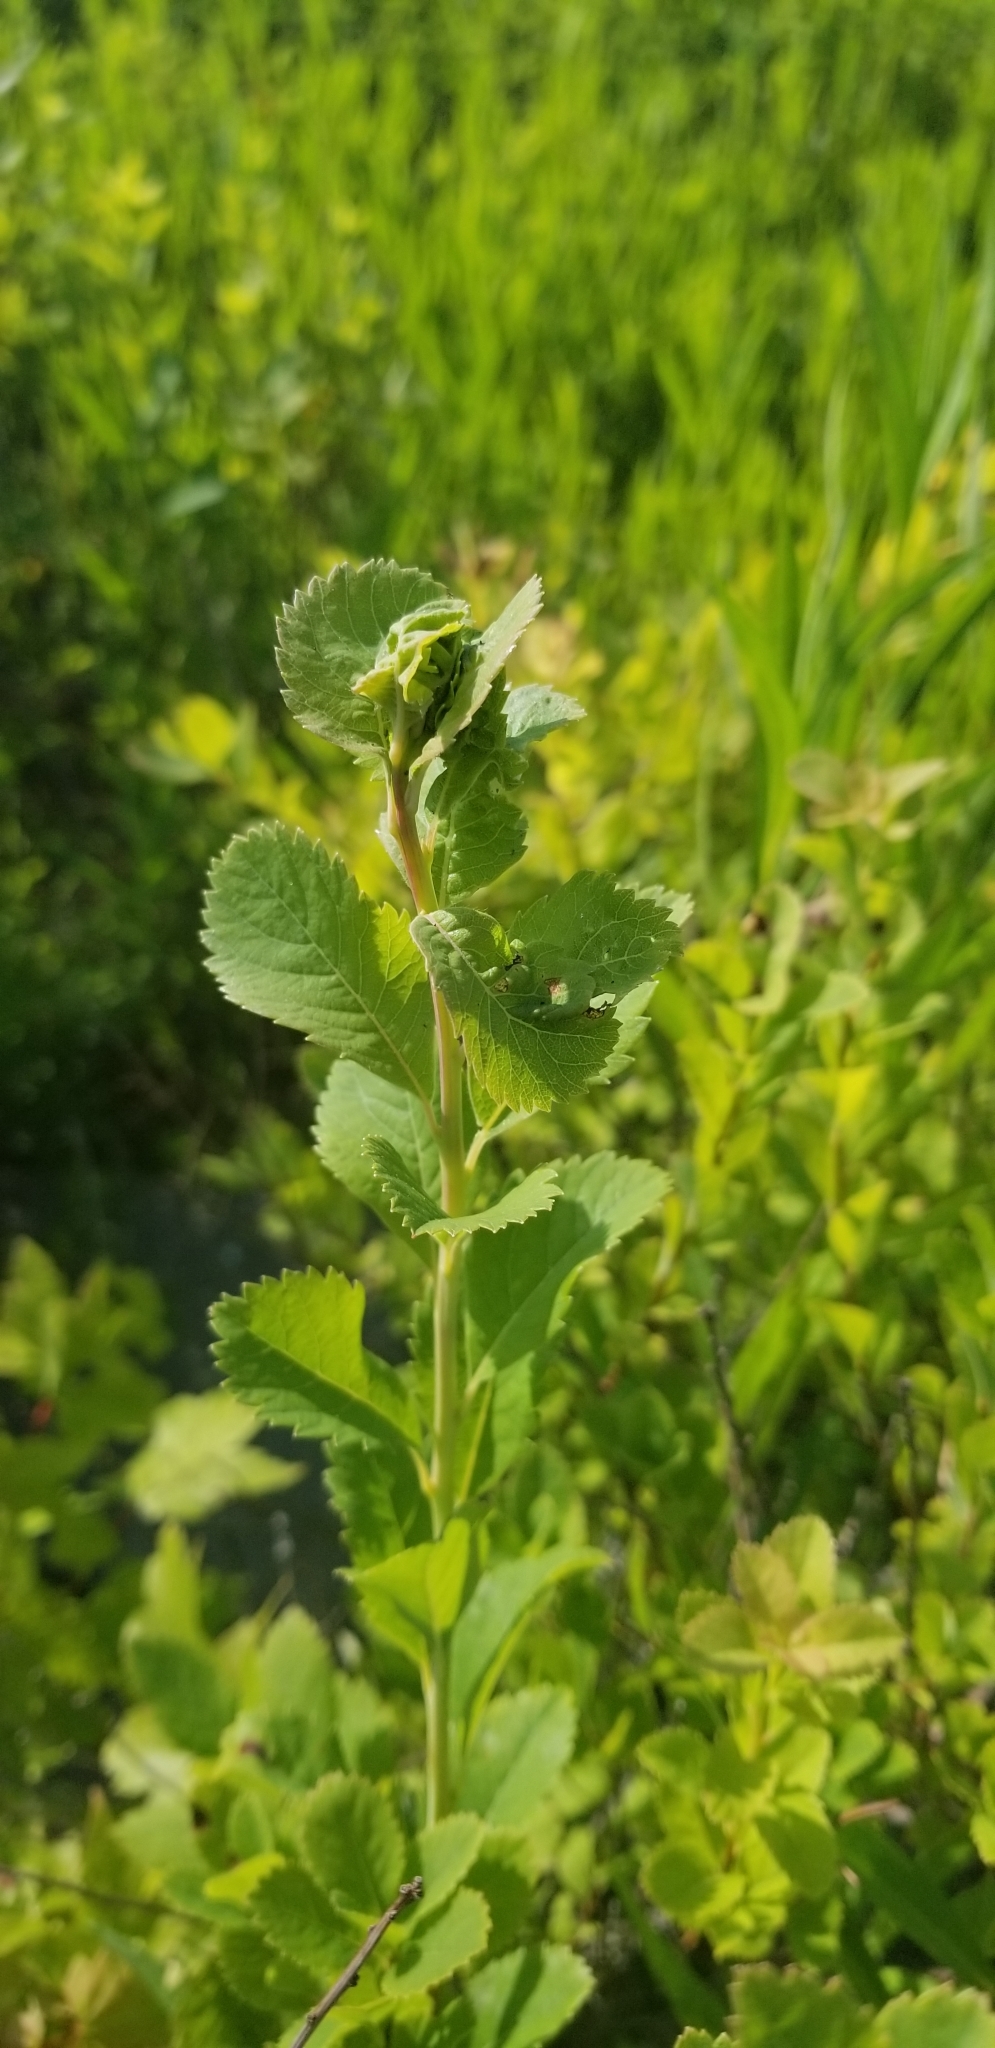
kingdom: Plantae
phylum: Tracheophyta
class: Magnoliopsida
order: Rosales
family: Rosaceae
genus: Spiraea
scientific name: Spiraea alba
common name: Pale bridewort
